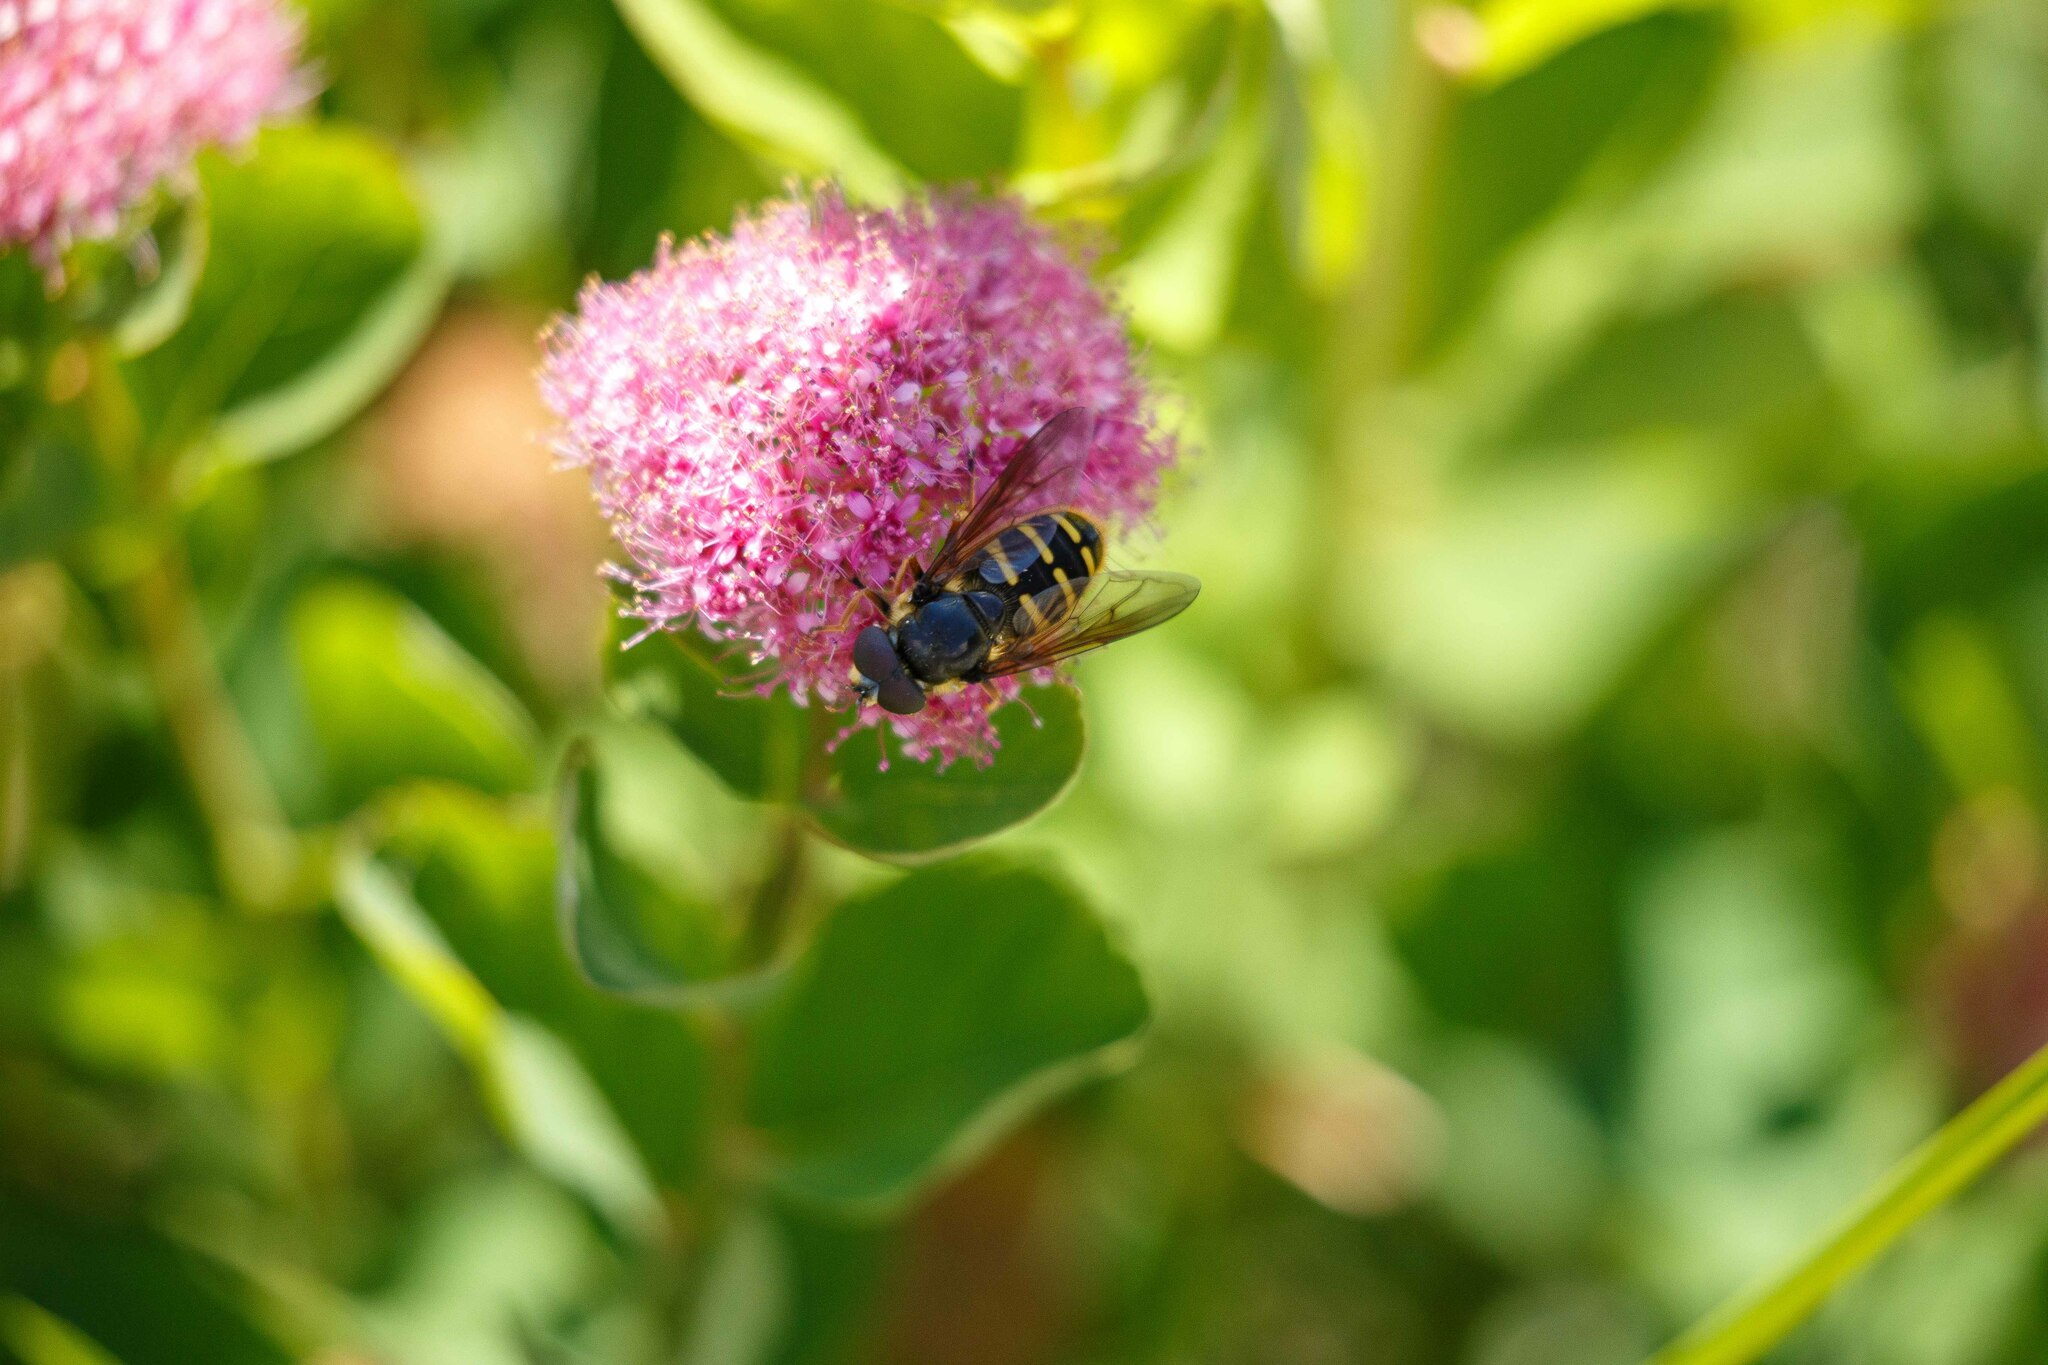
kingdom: Animalia
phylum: Arthropoda
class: Insecta
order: Diptera
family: Syrphidae
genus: Sericomyia
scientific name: Sericomyia chalcopyga
